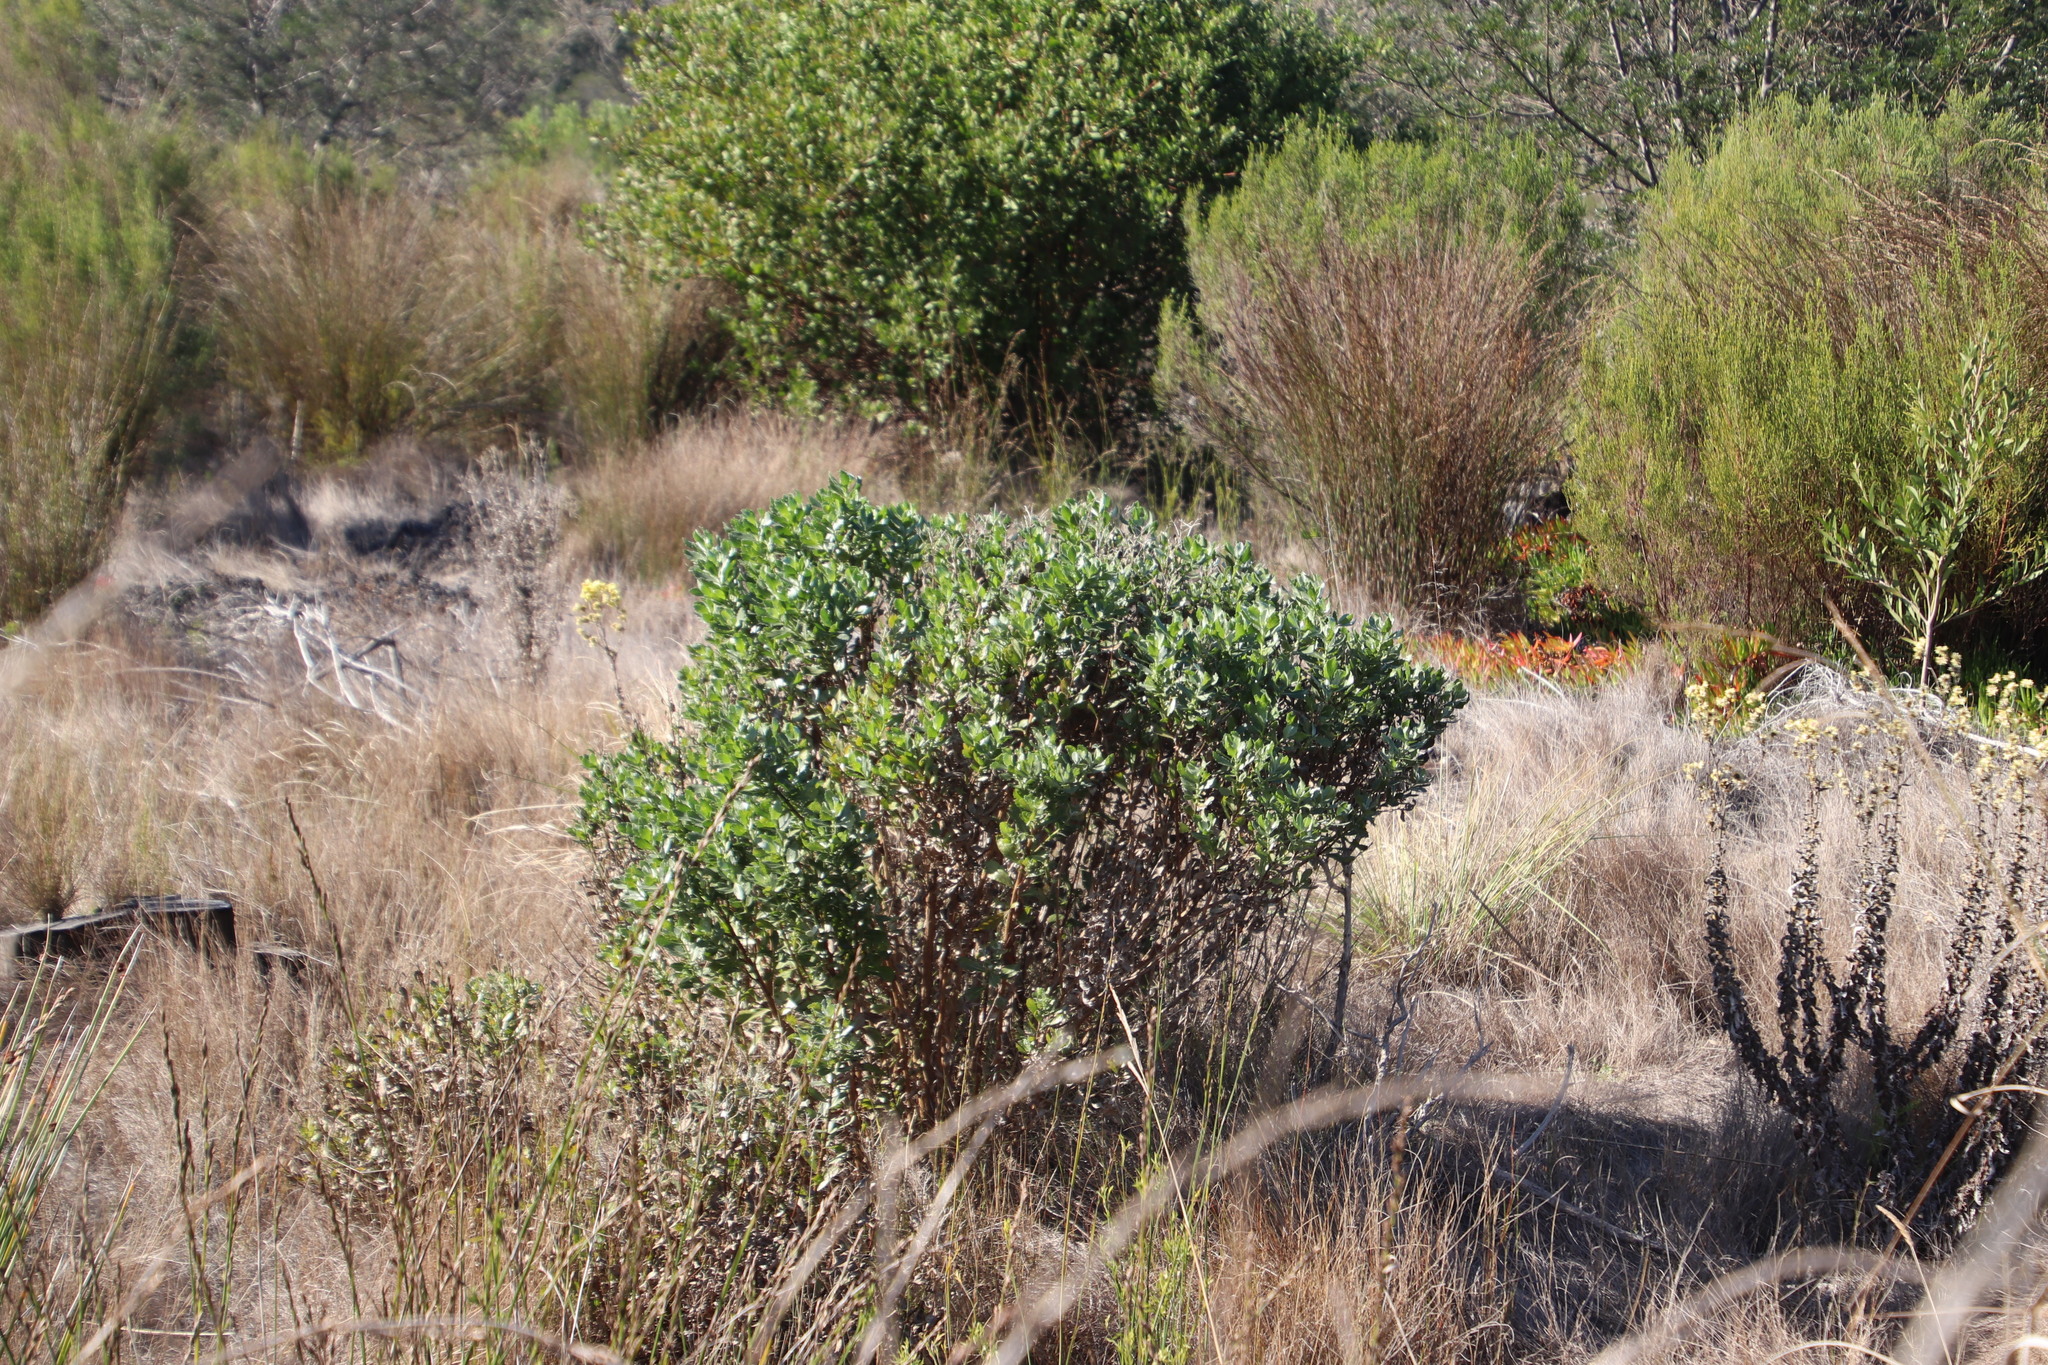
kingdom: Plantae
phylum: Tracheophyta
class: Magnoliopsida
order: Asterales
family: Asteraceae
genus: Osteospermum
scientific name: Osteospermum moniliferum
